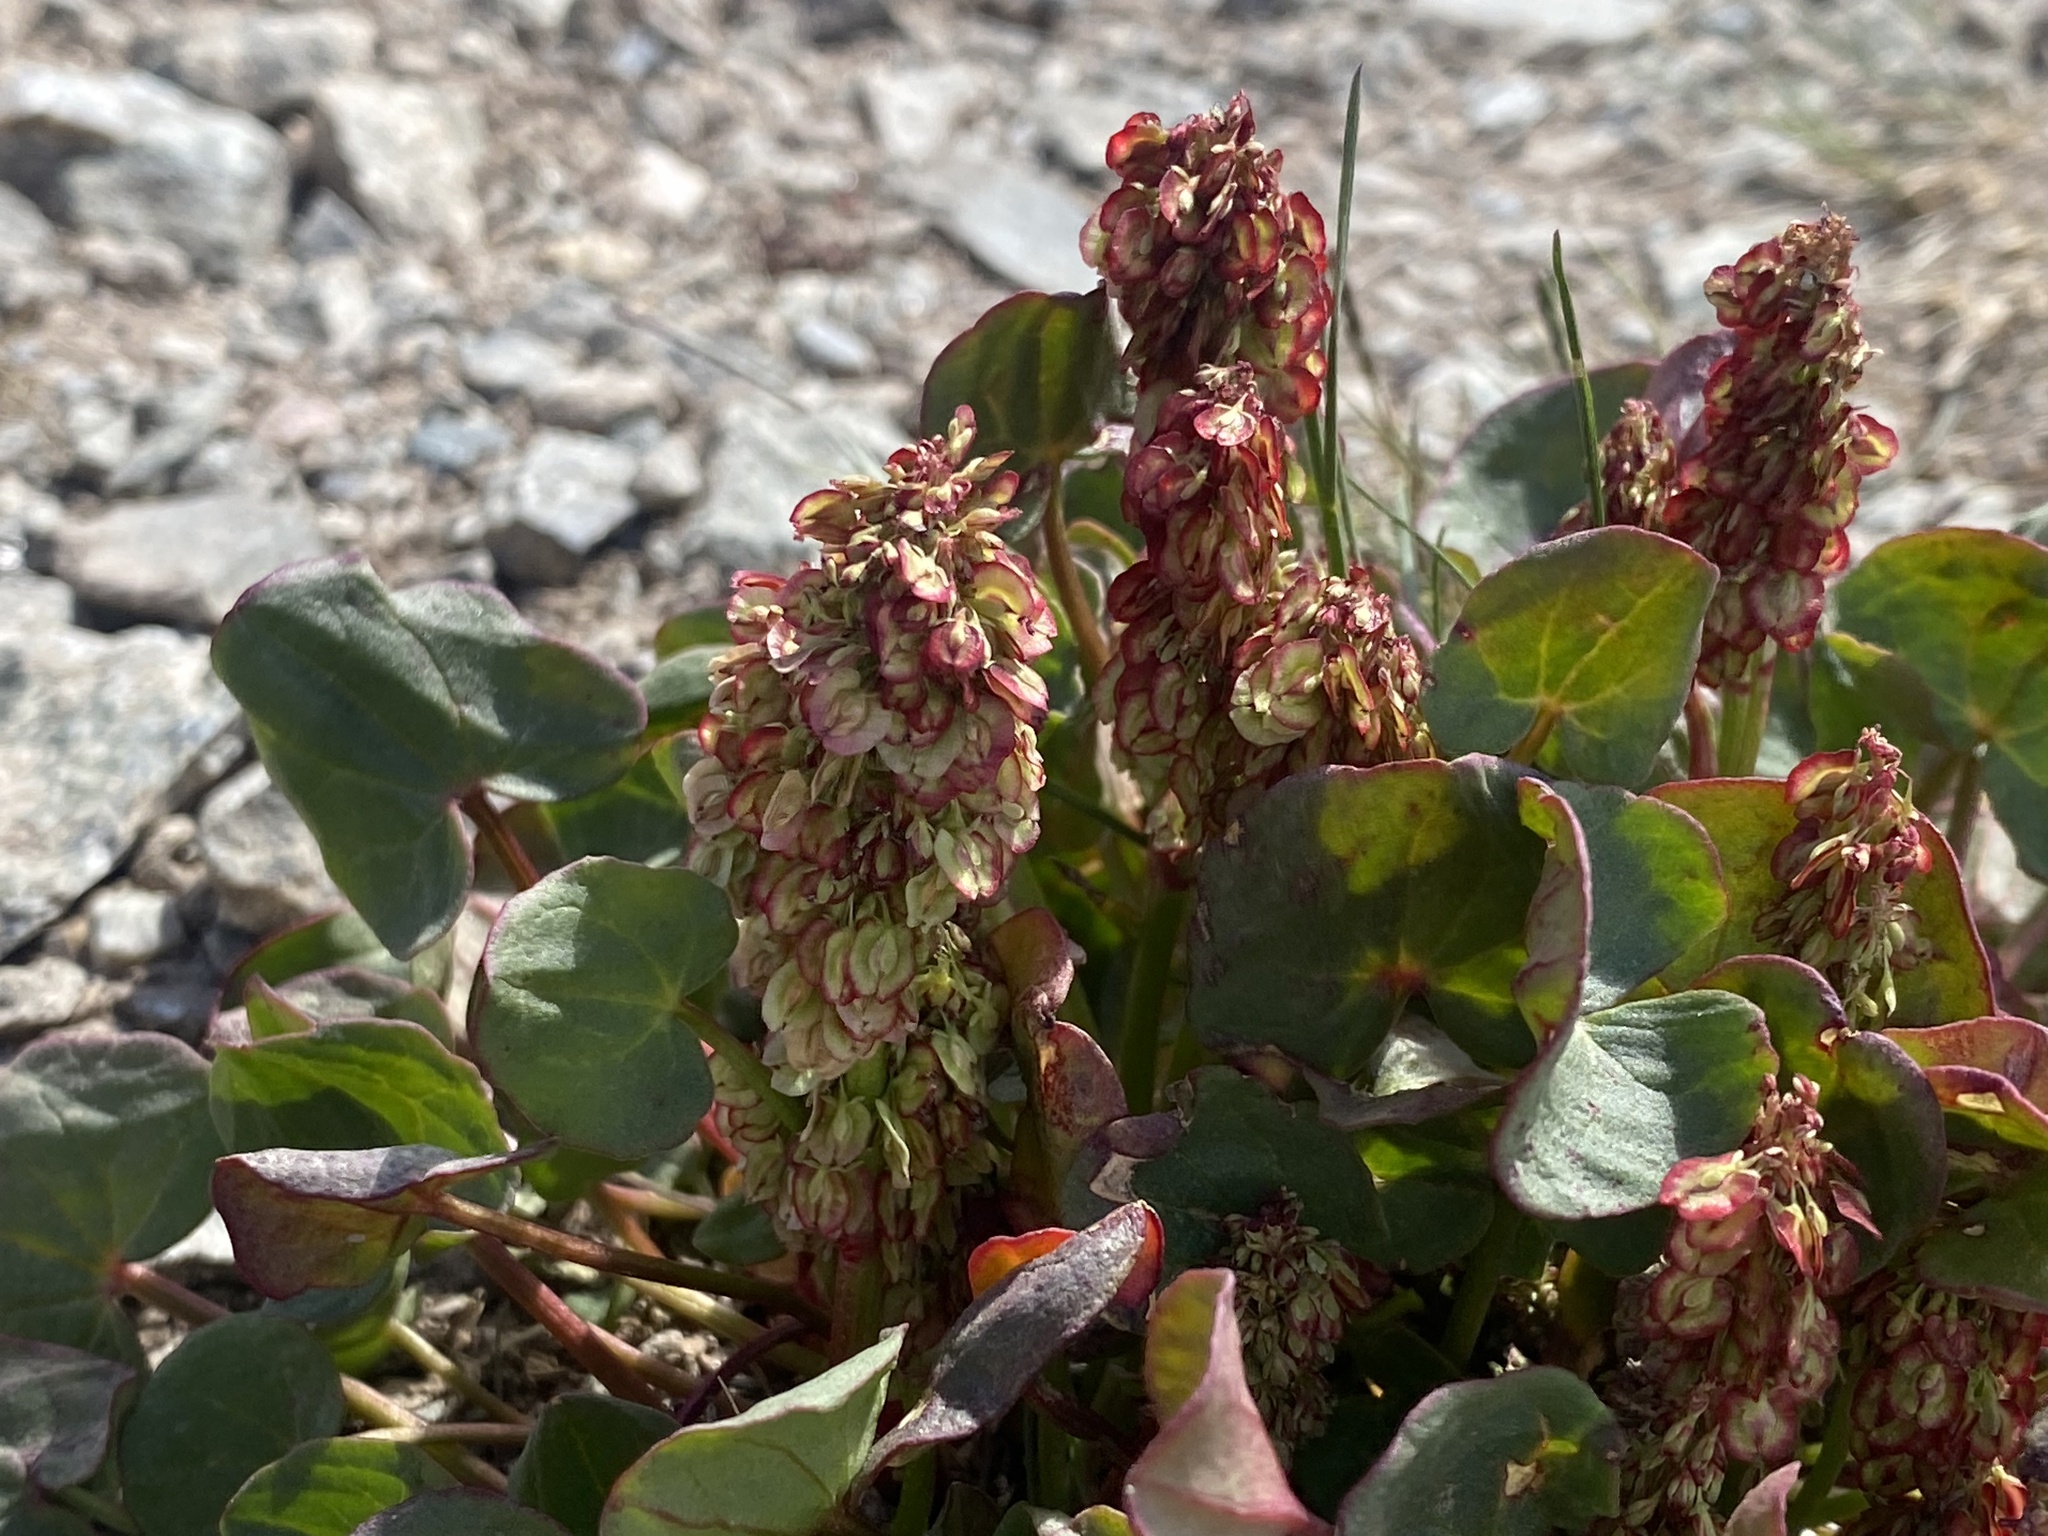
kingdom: Plantae
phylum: Tracheophyta
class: Magnoliopsida
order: Caryophyllales
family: Polygonaceae
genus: Oxyria
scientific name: Oxyria digyna
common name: Alpine mountain-sorrel
